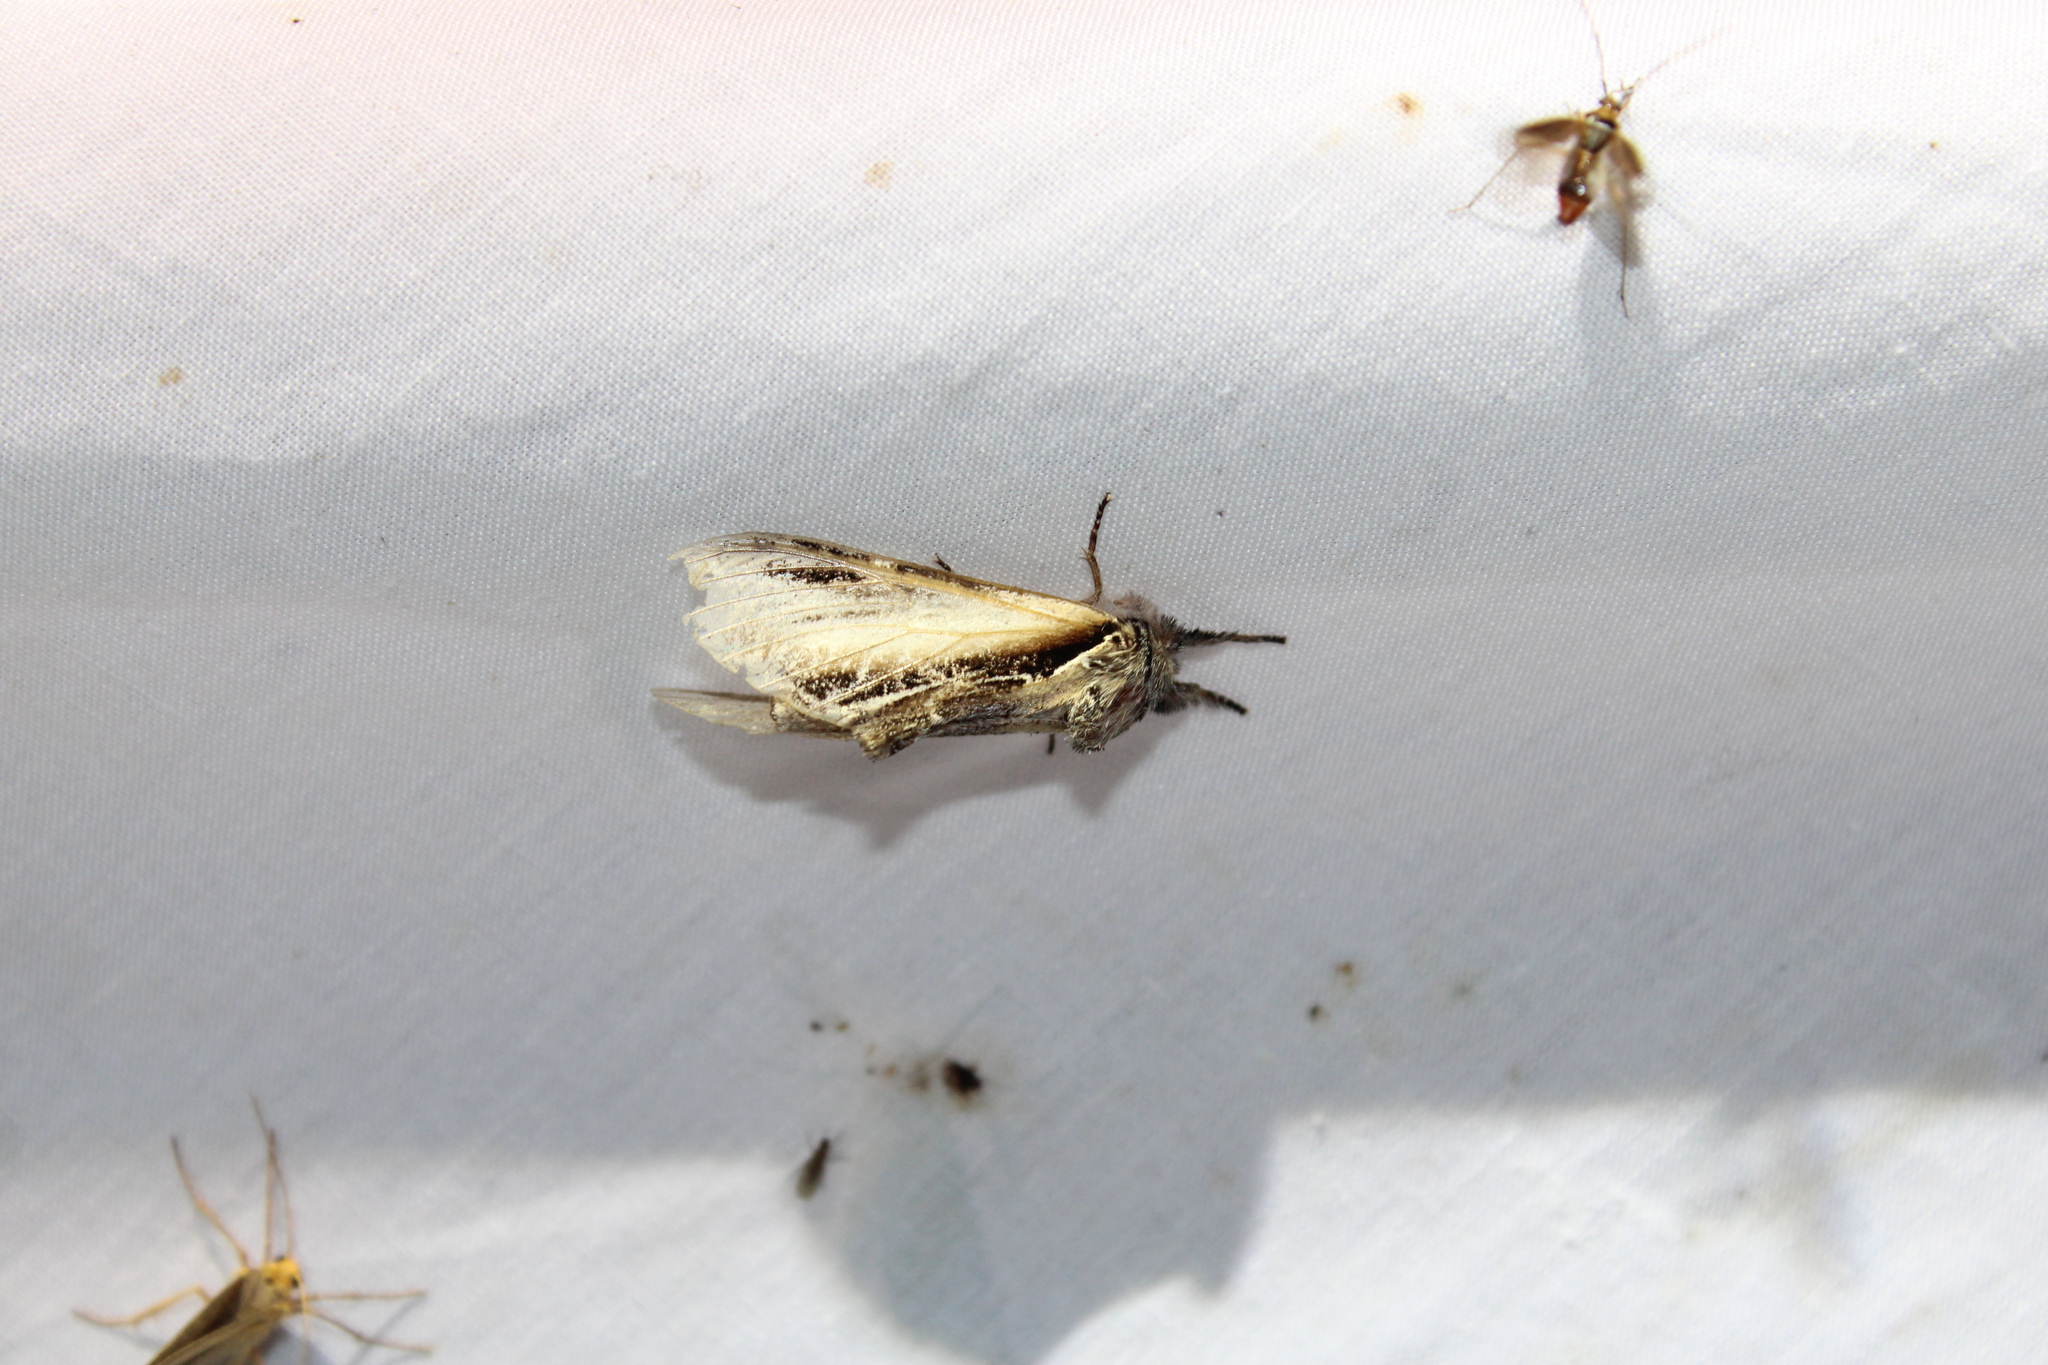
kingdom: Animalia
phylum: Arthropoda
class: Insecta
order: Lepidoptera
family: Notodontidae
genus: Pheosia
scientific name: Pheosia rimosa
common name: Black-rimmed prominent
